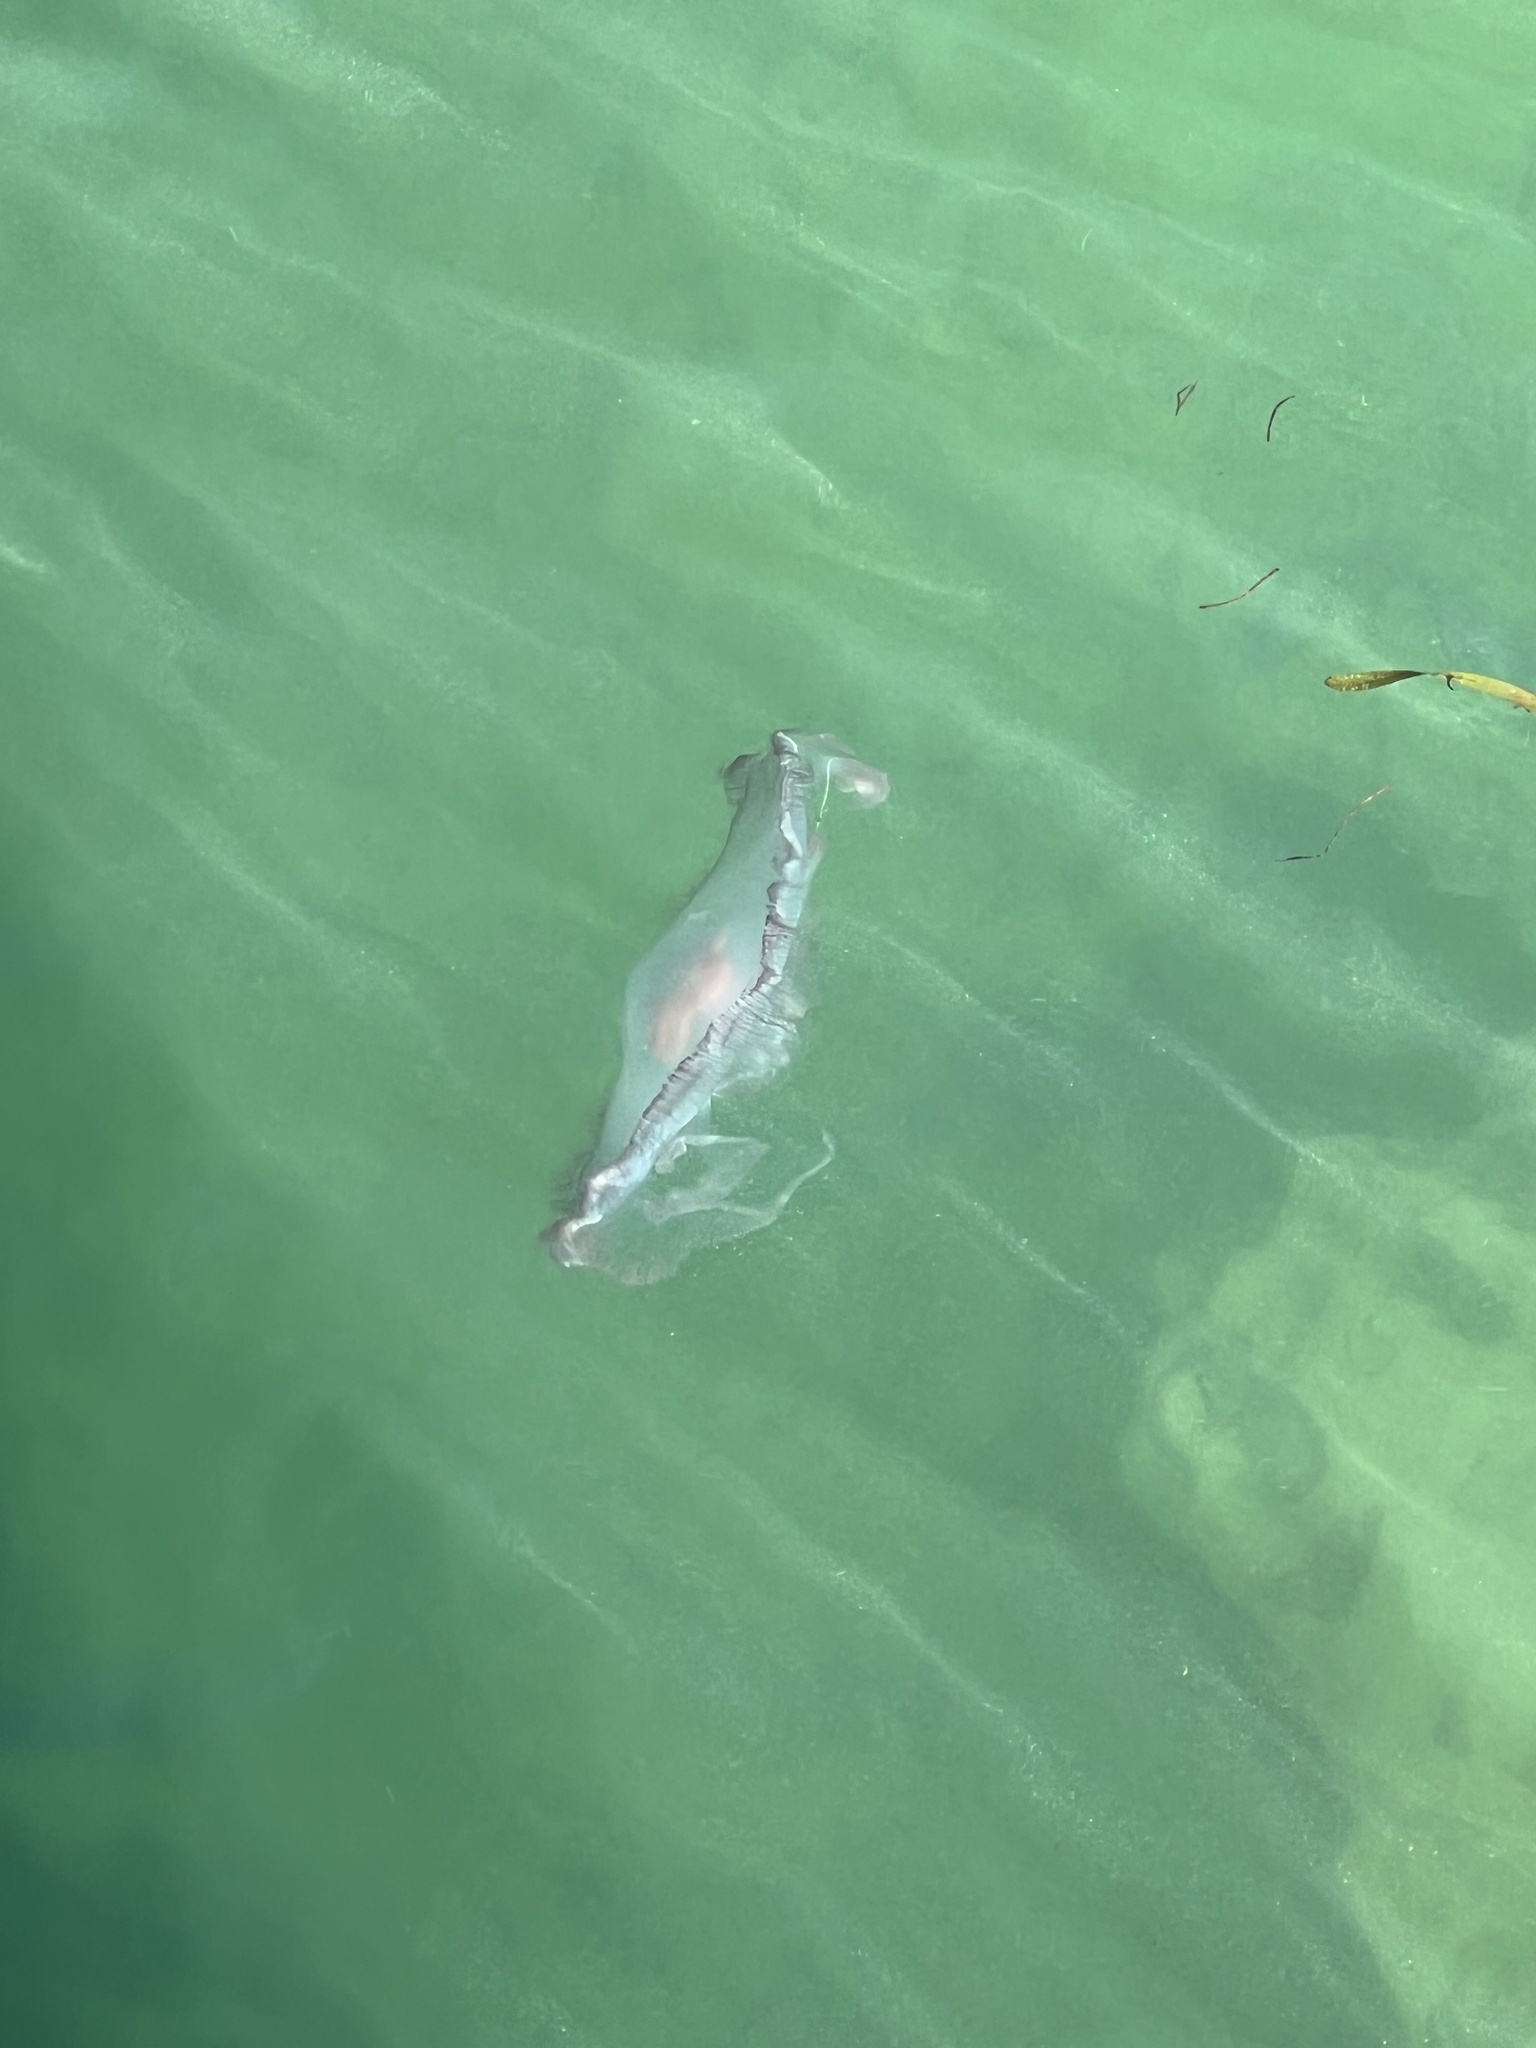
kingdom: Animalia
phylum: Cnidaria
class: Scyphozoa
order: Semaeostomeae
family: Ulmaridae
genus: Aurelia
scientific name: Aurelia marginalis
